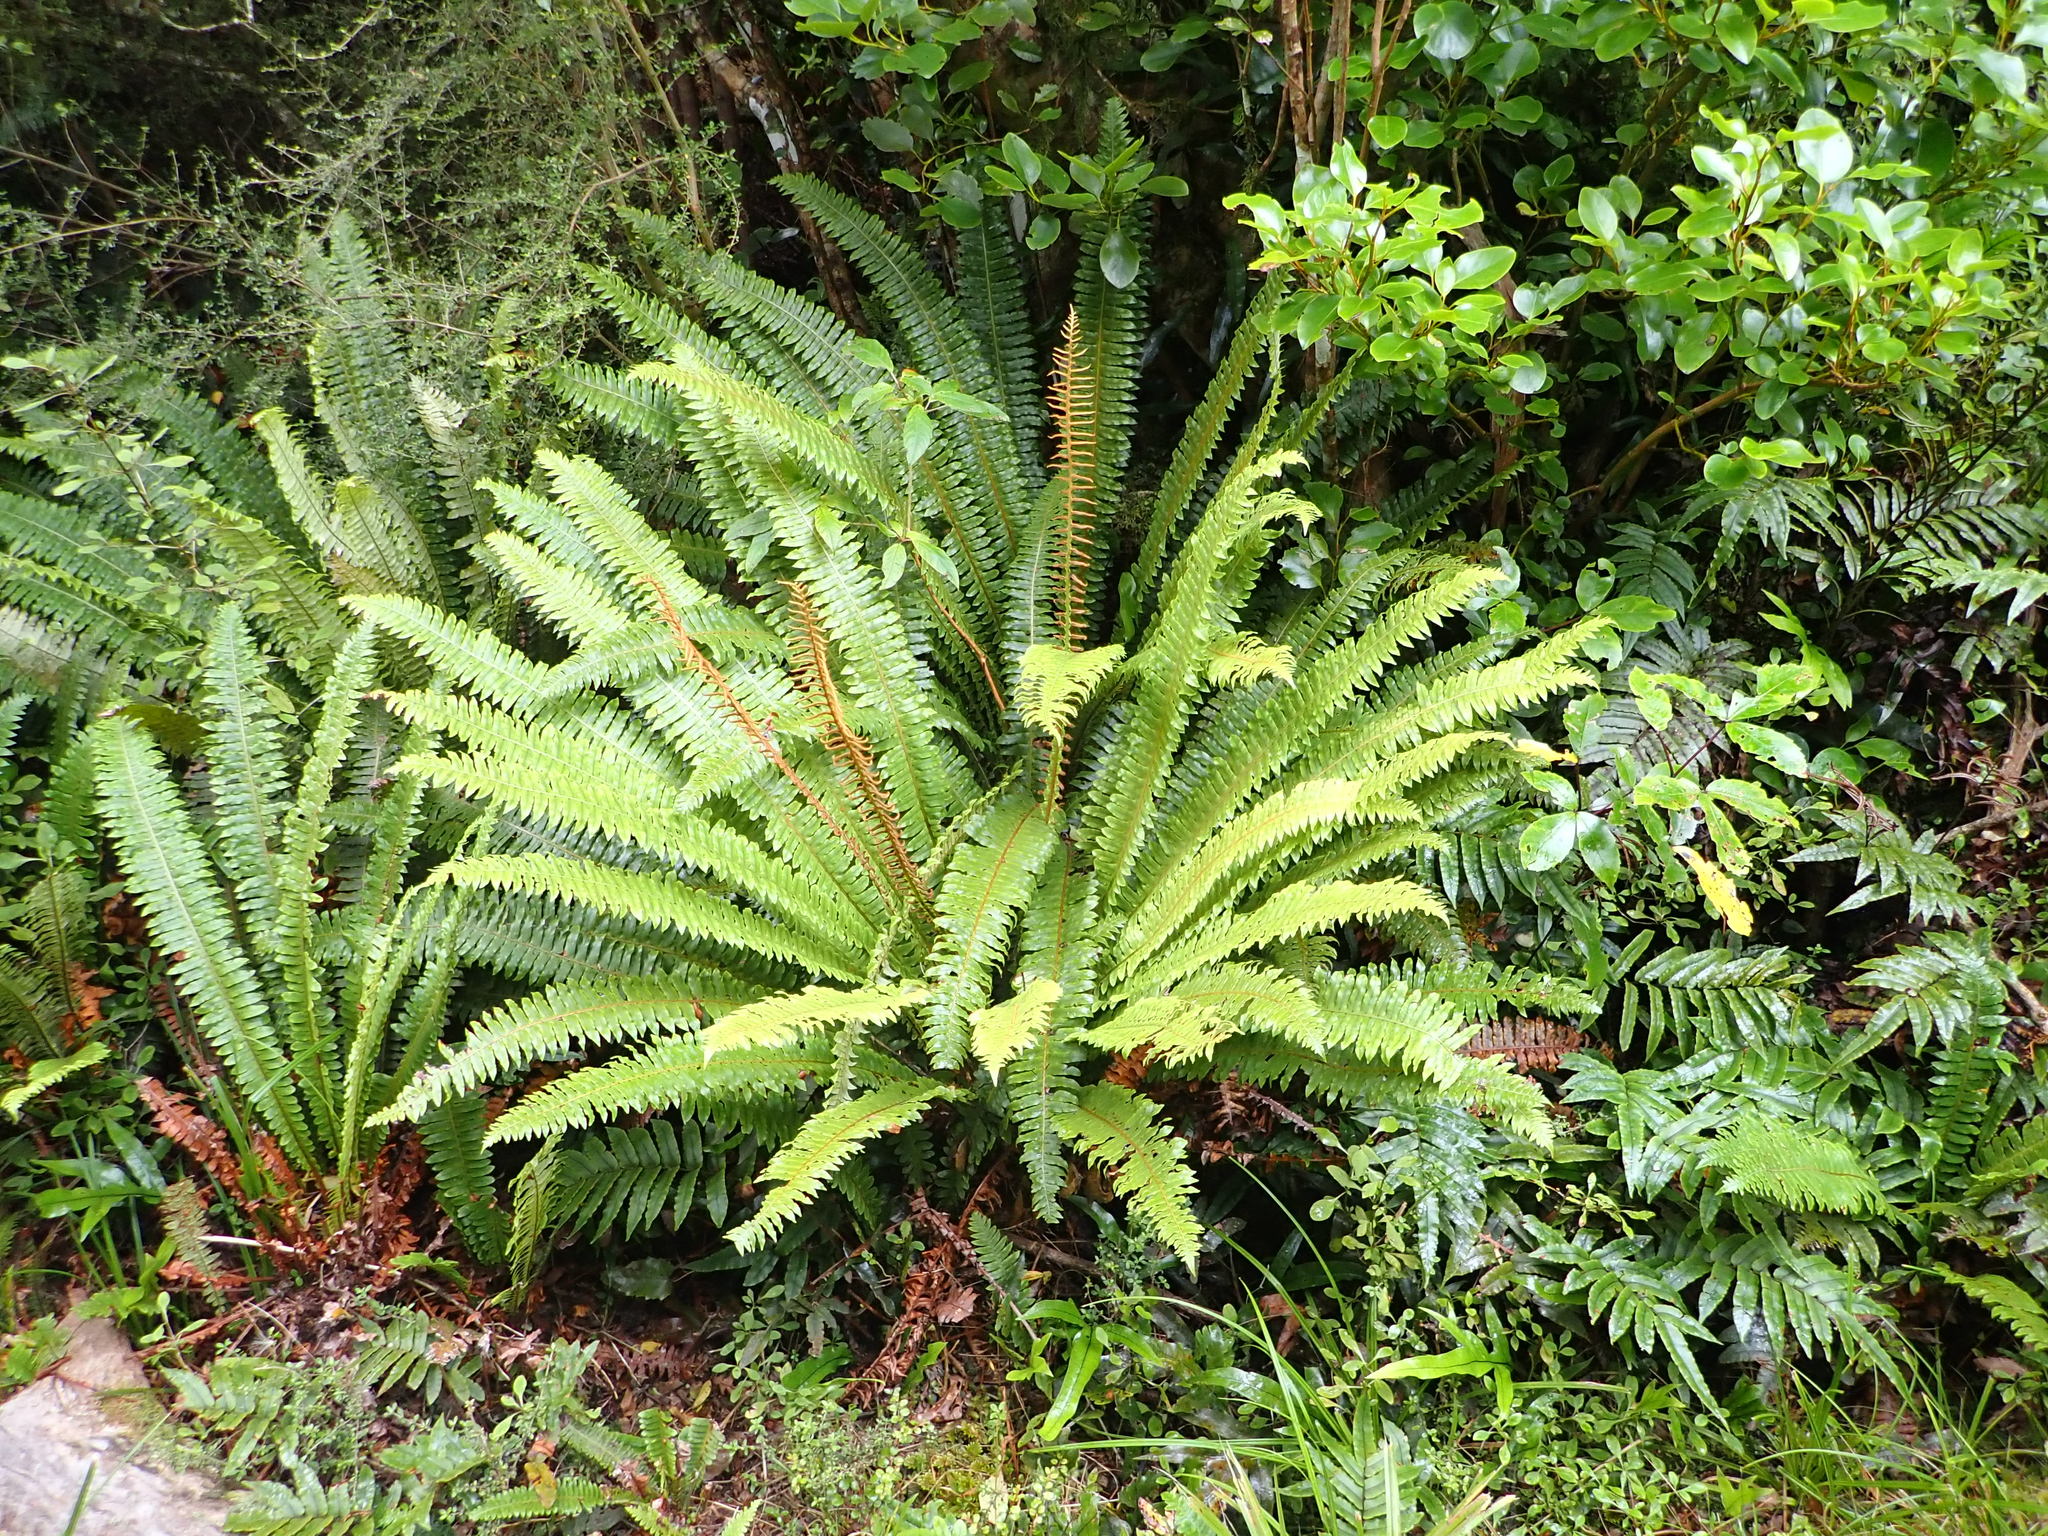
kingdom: Plantae
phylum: Tracheophyta
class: Polypodiopsida
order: Polypodiales
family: Blechnaceae
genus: Lomaria
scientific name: Lomaria discolor
